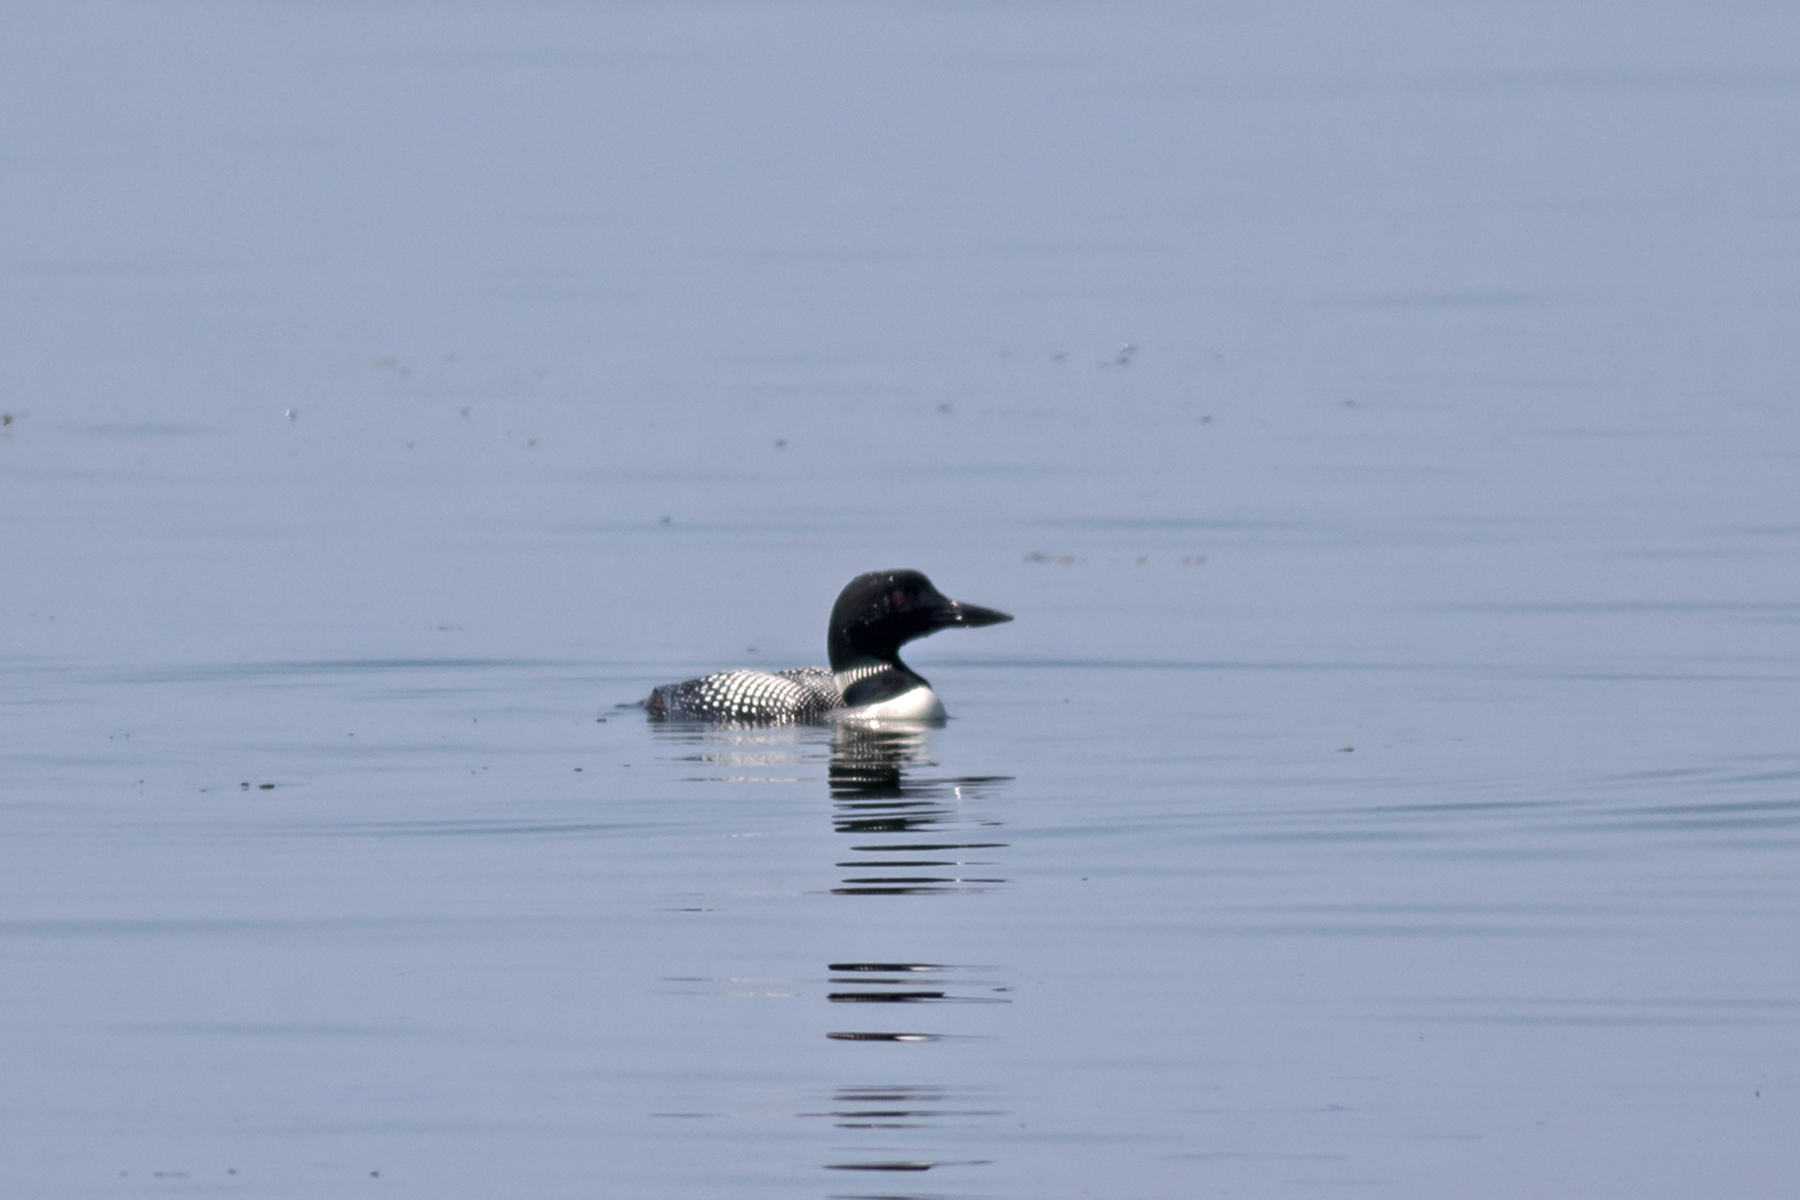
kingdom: Animalia
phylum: Chordata
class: Aves
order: Gaviiformes
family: Gaviidae
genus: Gavia
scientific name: Gavia immer
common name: Common loon
